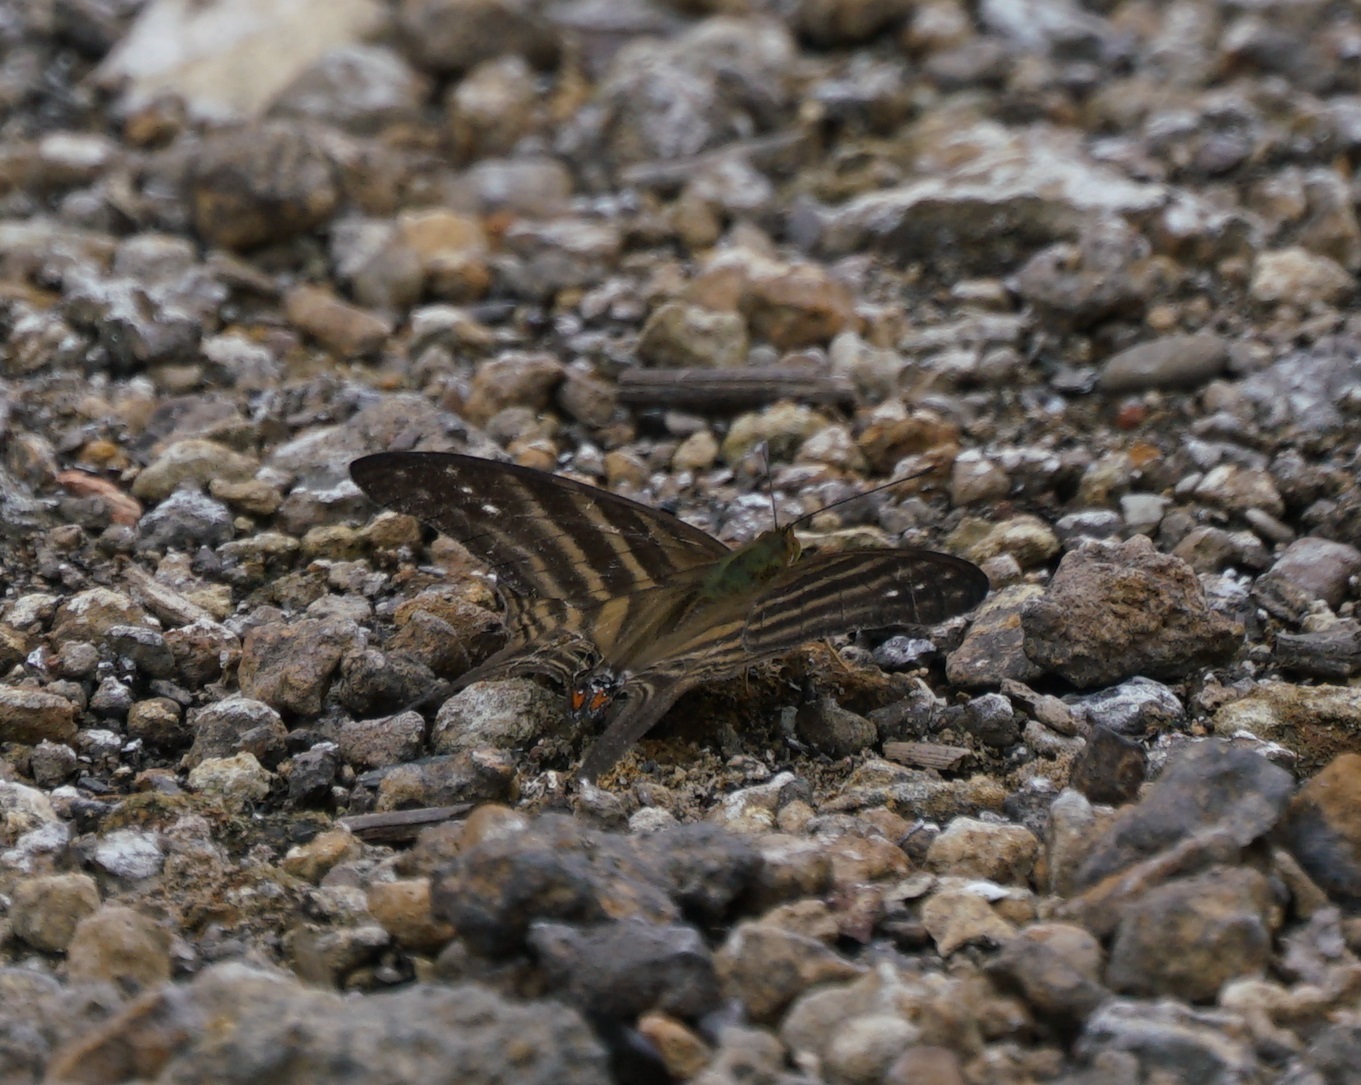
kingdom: Animalia
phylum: Arthropoda
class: Insecta
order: Lepidoptera
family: Nymphalidae
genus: Marpesia
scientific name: Marpesia chiron
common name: Many-banded daggerwing
